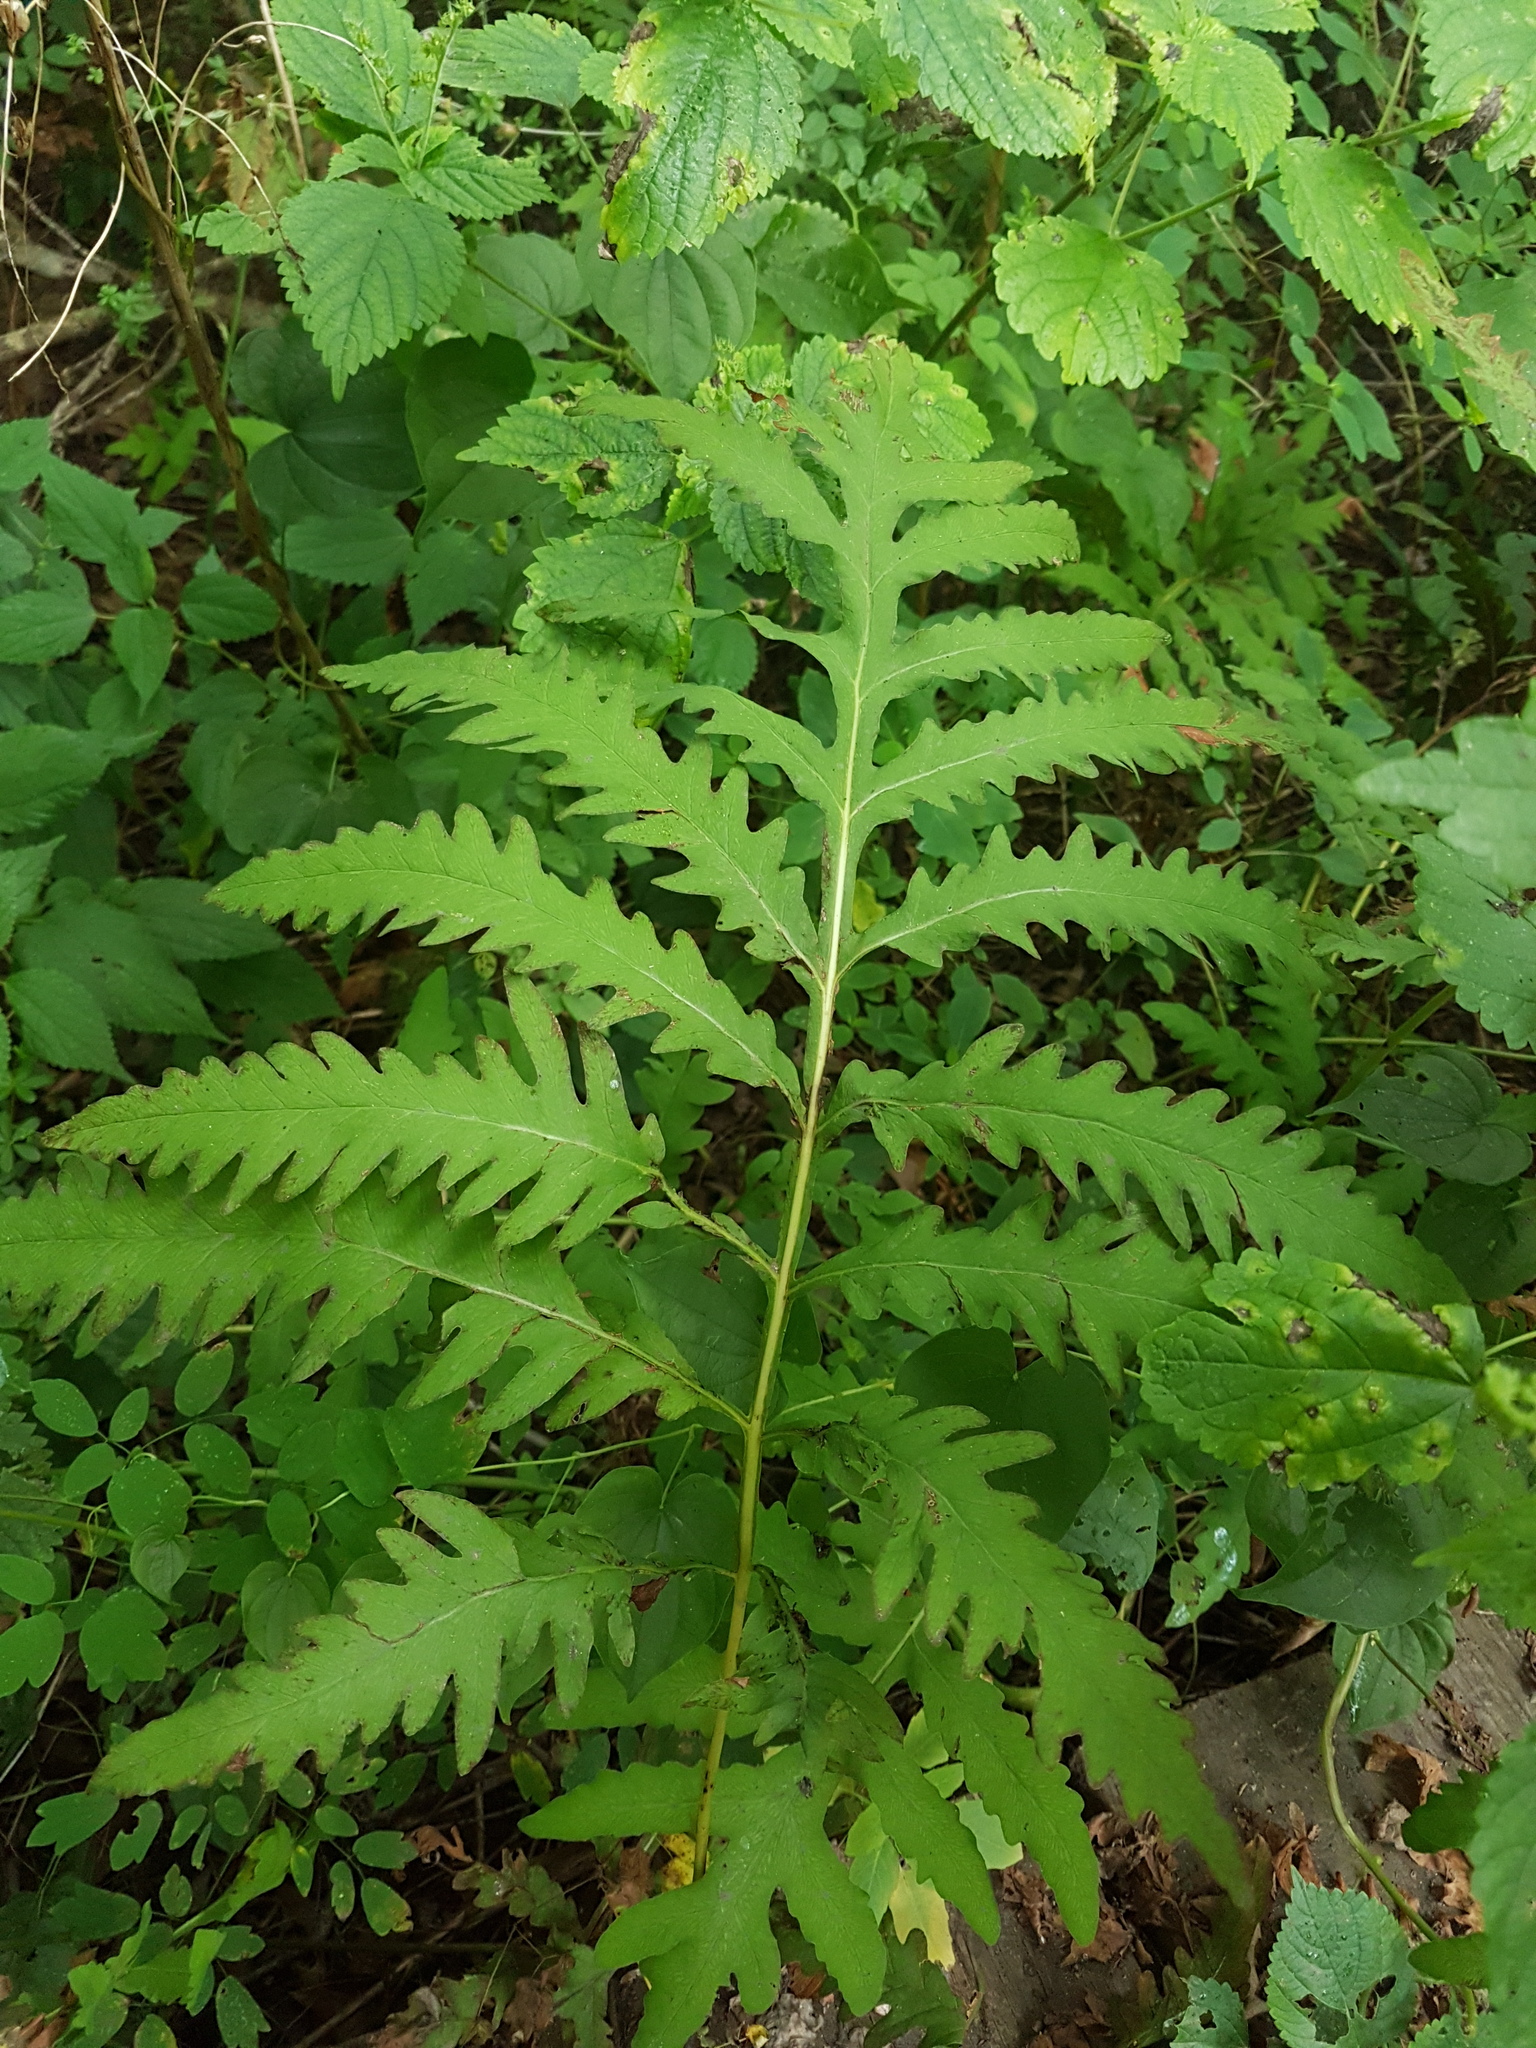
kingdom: Plantae
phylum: Tracheophyta
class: Polypodiopsida
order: Polypodiales
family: Onocleaceae
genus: Onoclea
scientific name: Onoclea sensibilis
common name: Sensitive fern
